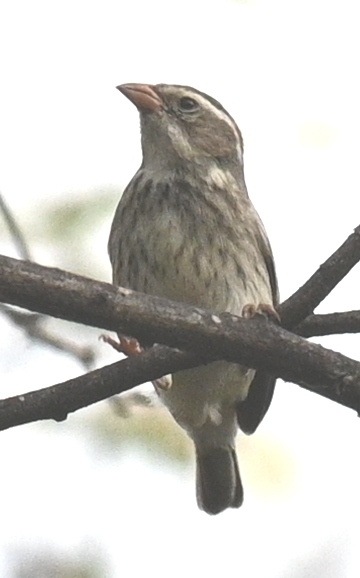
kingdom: Animalia
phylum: Chordata
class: Aves
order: Passeriformes
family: Thraupidae
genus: Poospiza
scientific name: Poospiza hispaniolensis
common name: Collared warbling finch
